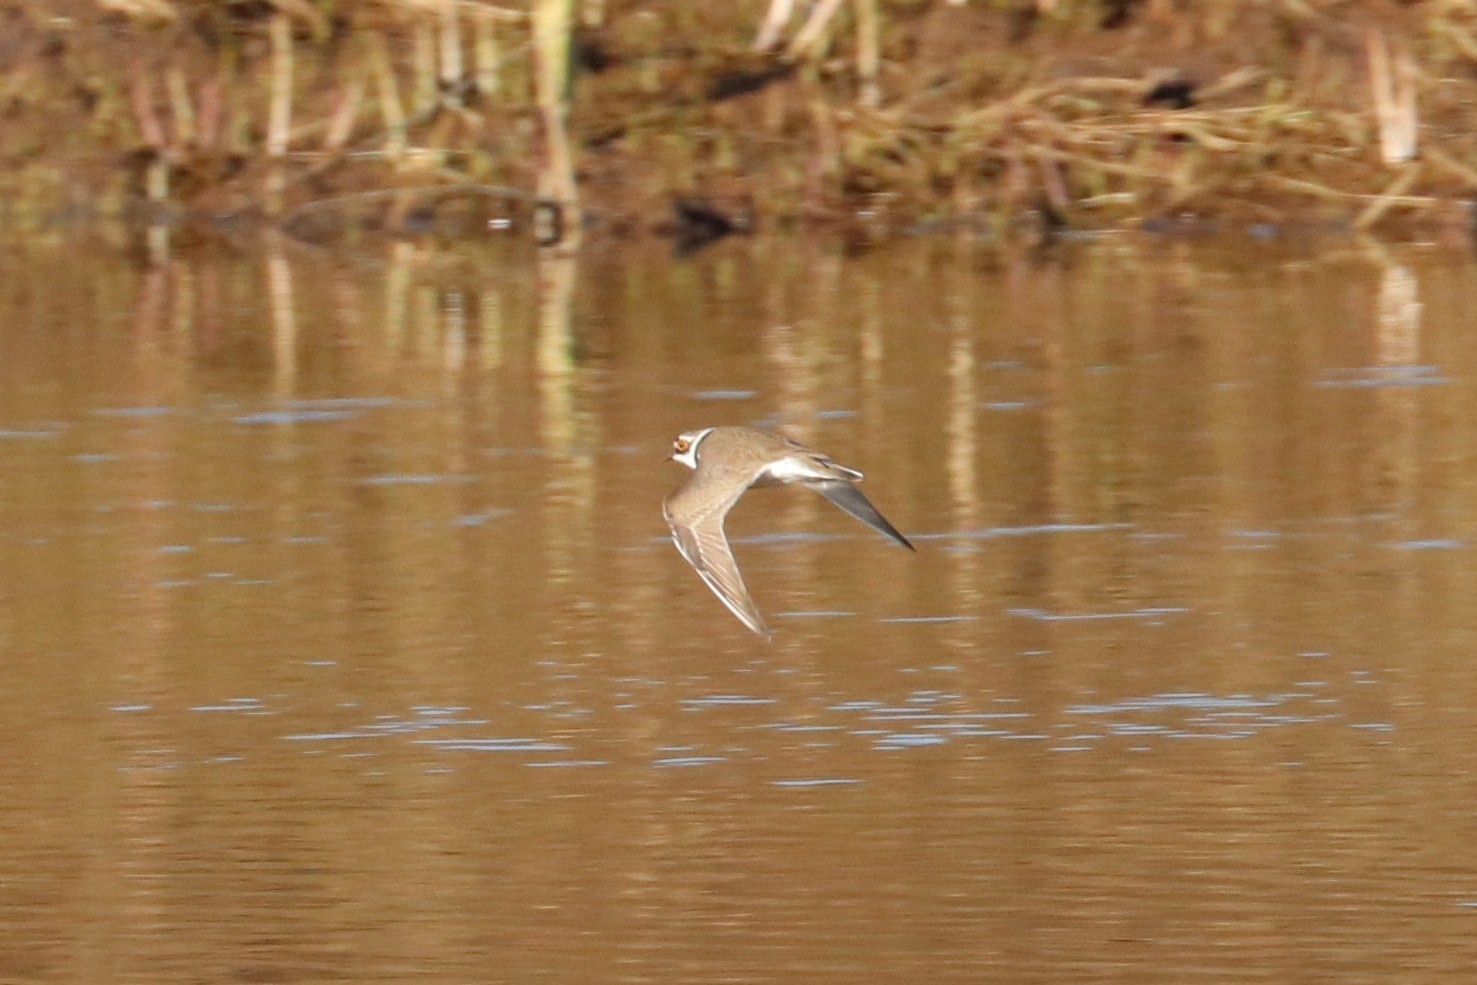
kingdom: Animalia
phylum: Chordata
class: Aves
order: Charadriiformes
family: Charadriidae
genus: Charadrius
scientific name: Charadrius dubius
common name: Little ringed plover
